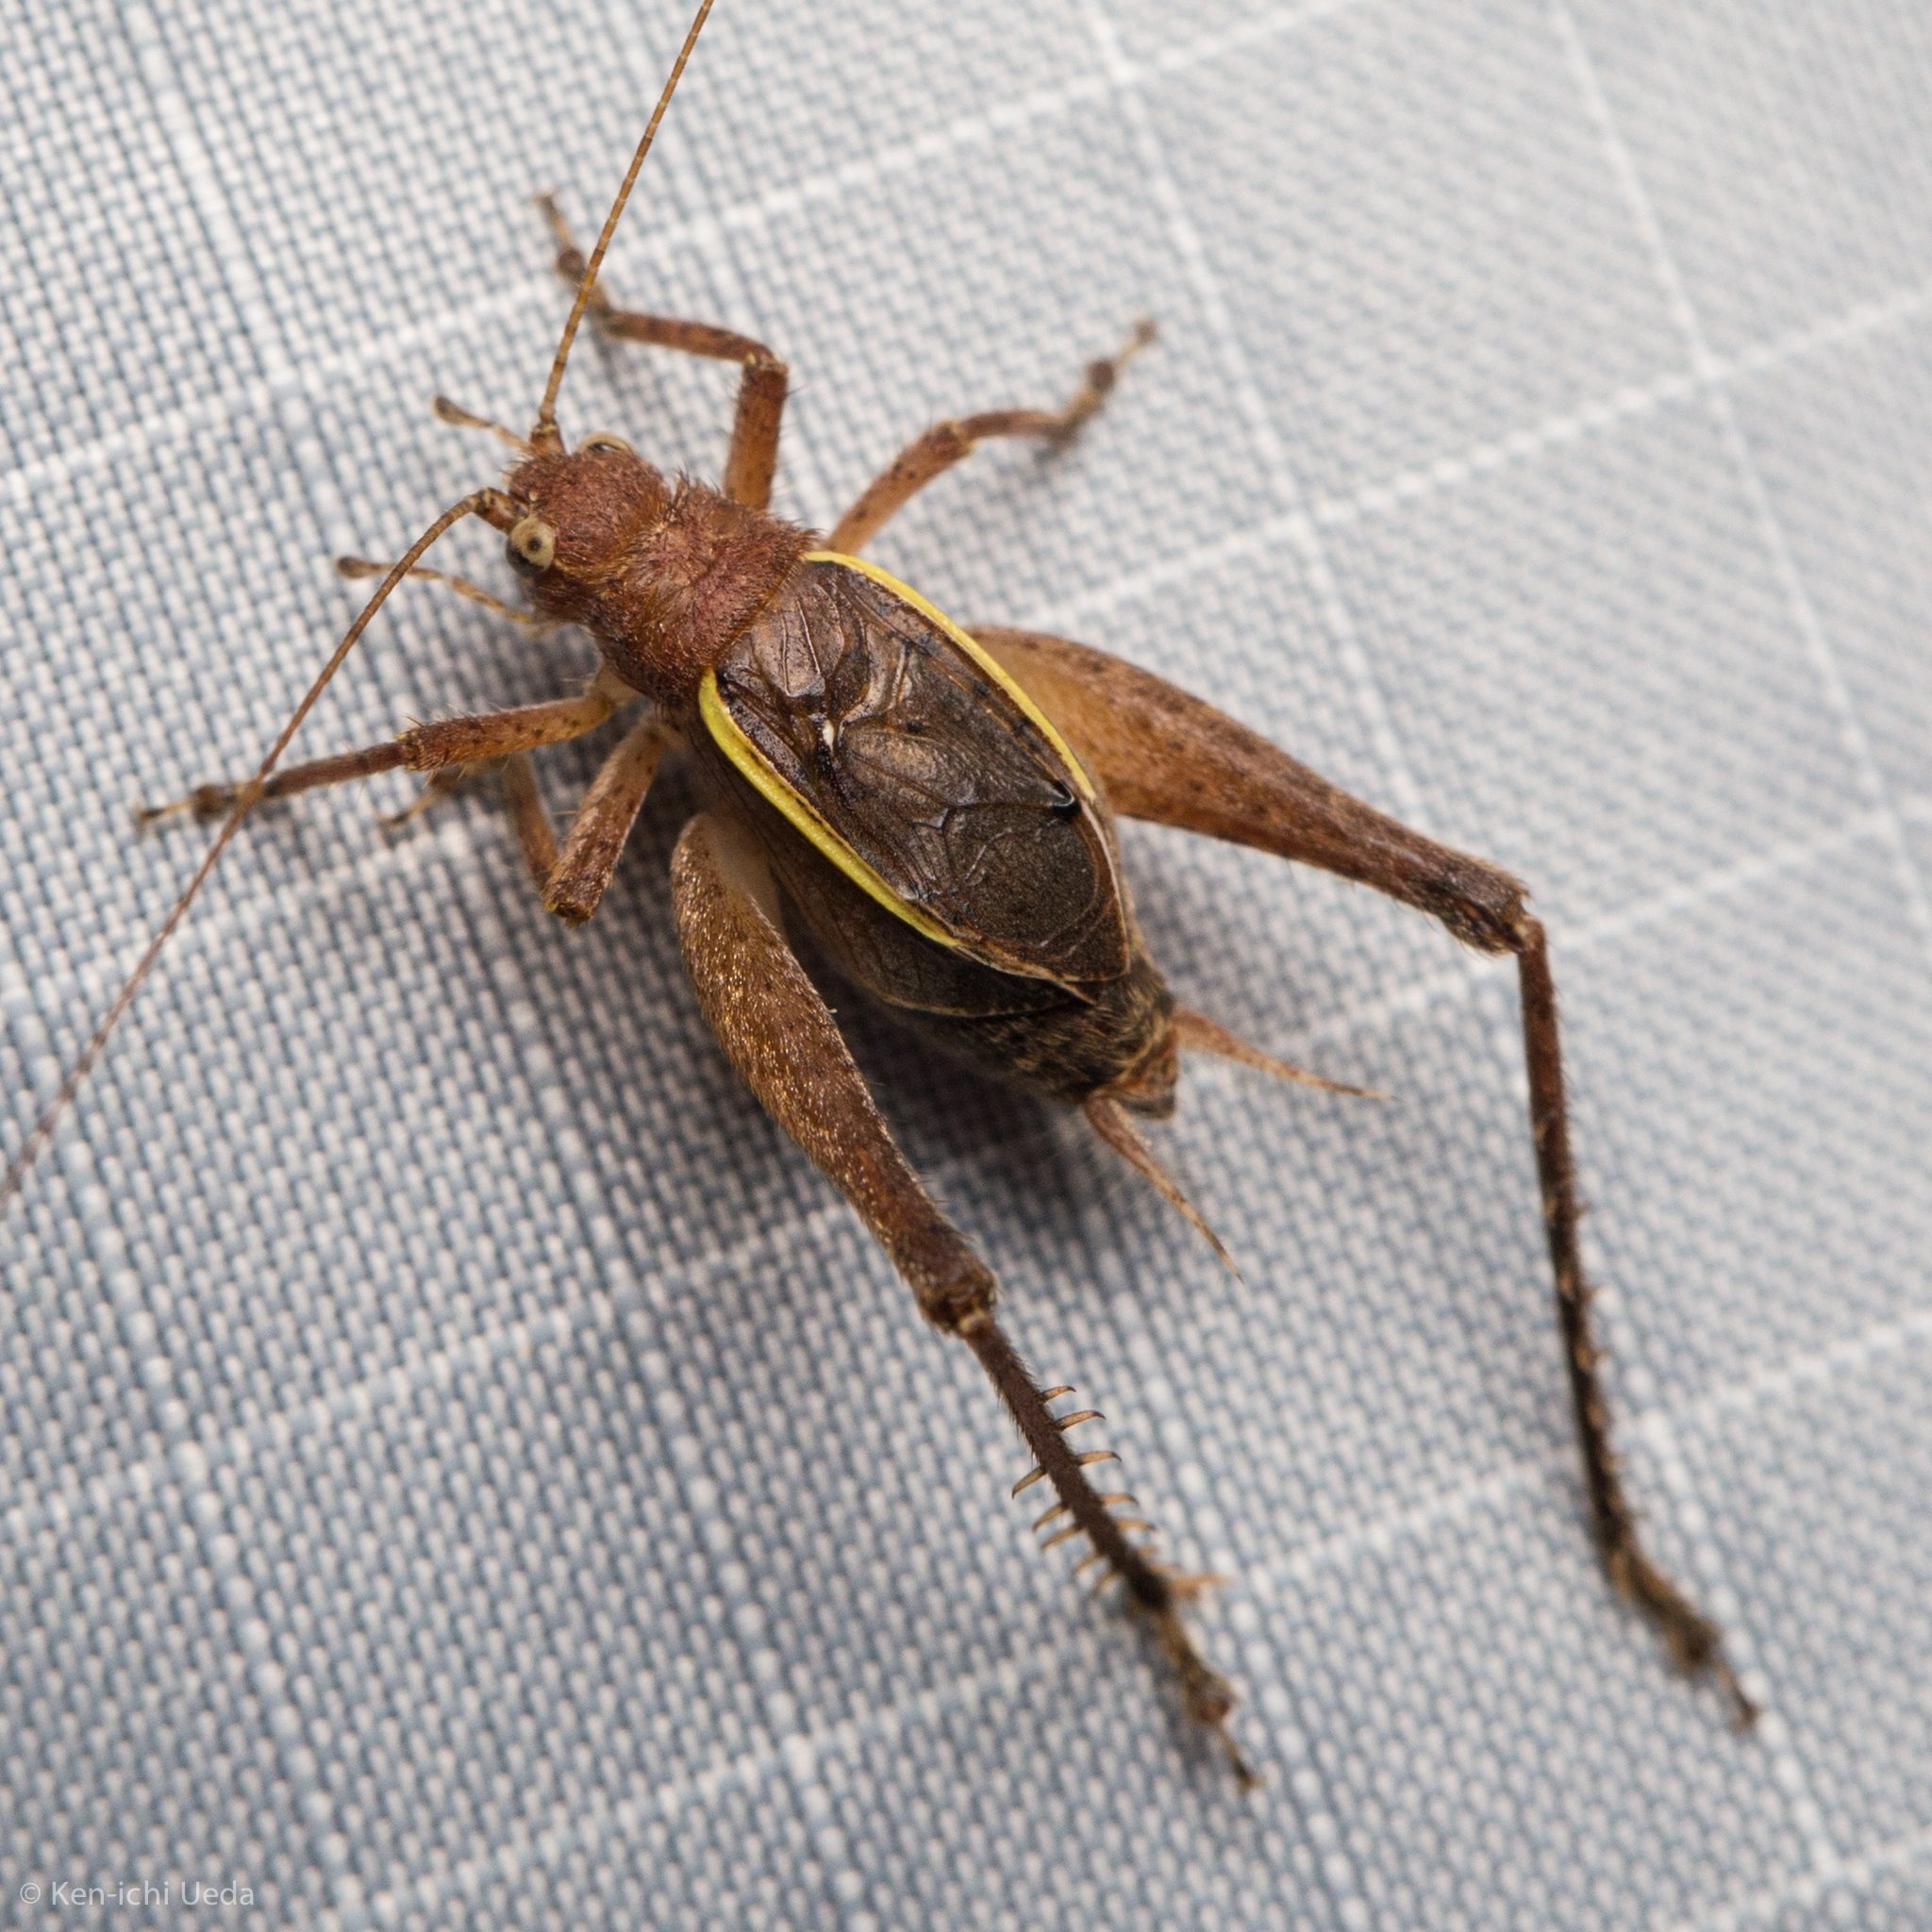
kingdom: Animalia
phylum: Arthropoda
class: Insecta
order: Orthoptera
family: Gryllidae
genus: Hapithus
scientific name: Hapithus agitator
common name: Restless bush cricket
